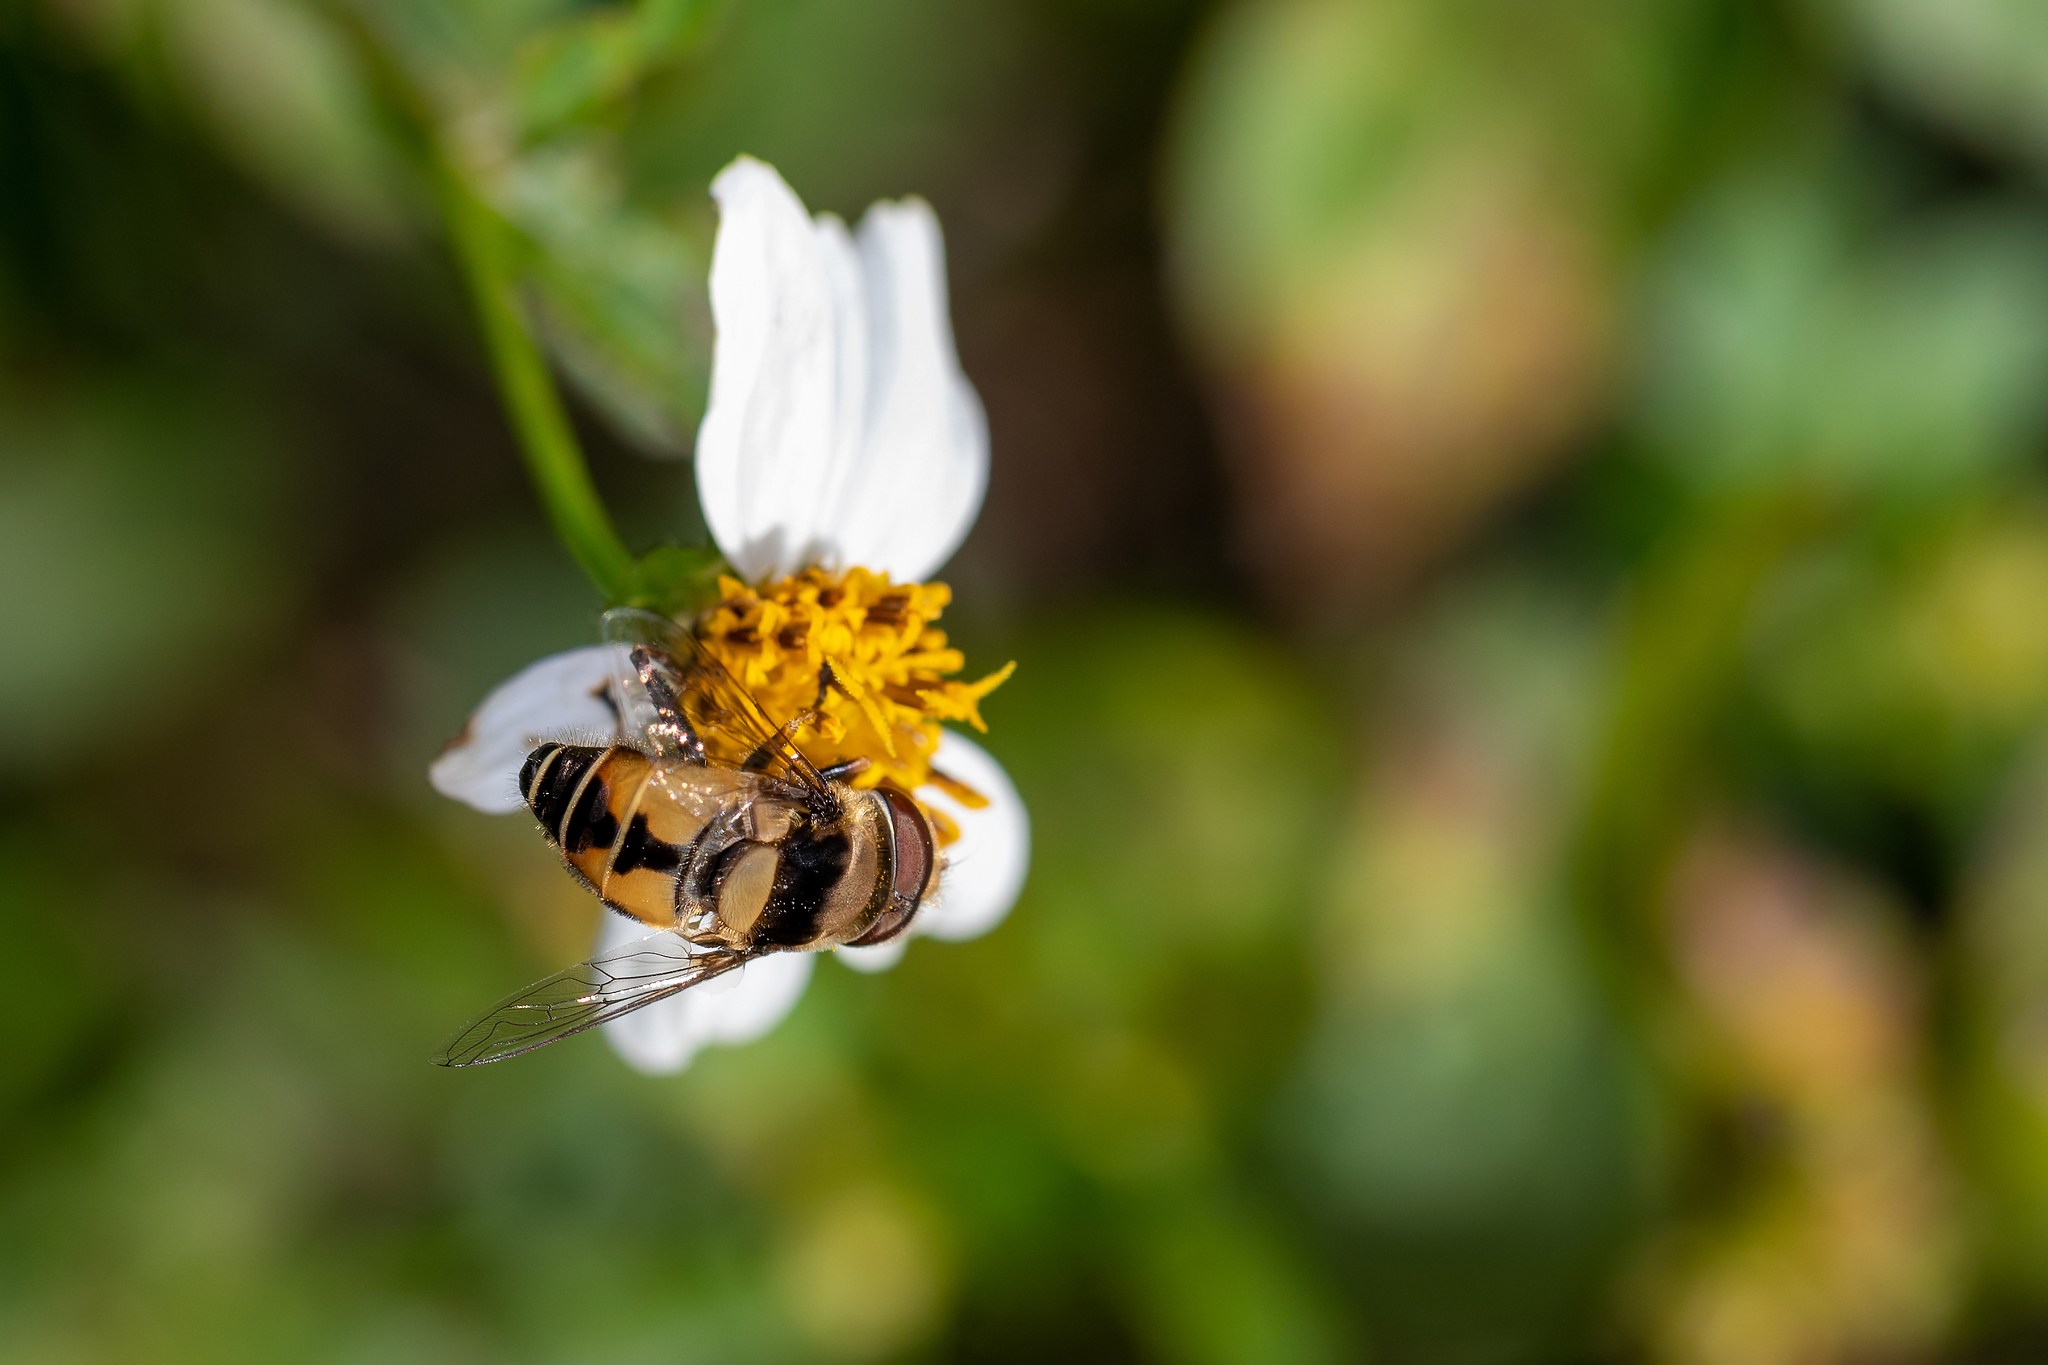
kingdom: Animalia
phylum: Arthropoda
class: Insecta
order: Diptera
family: Syrphidae
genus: Palpada
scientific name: Palpada pusilla
